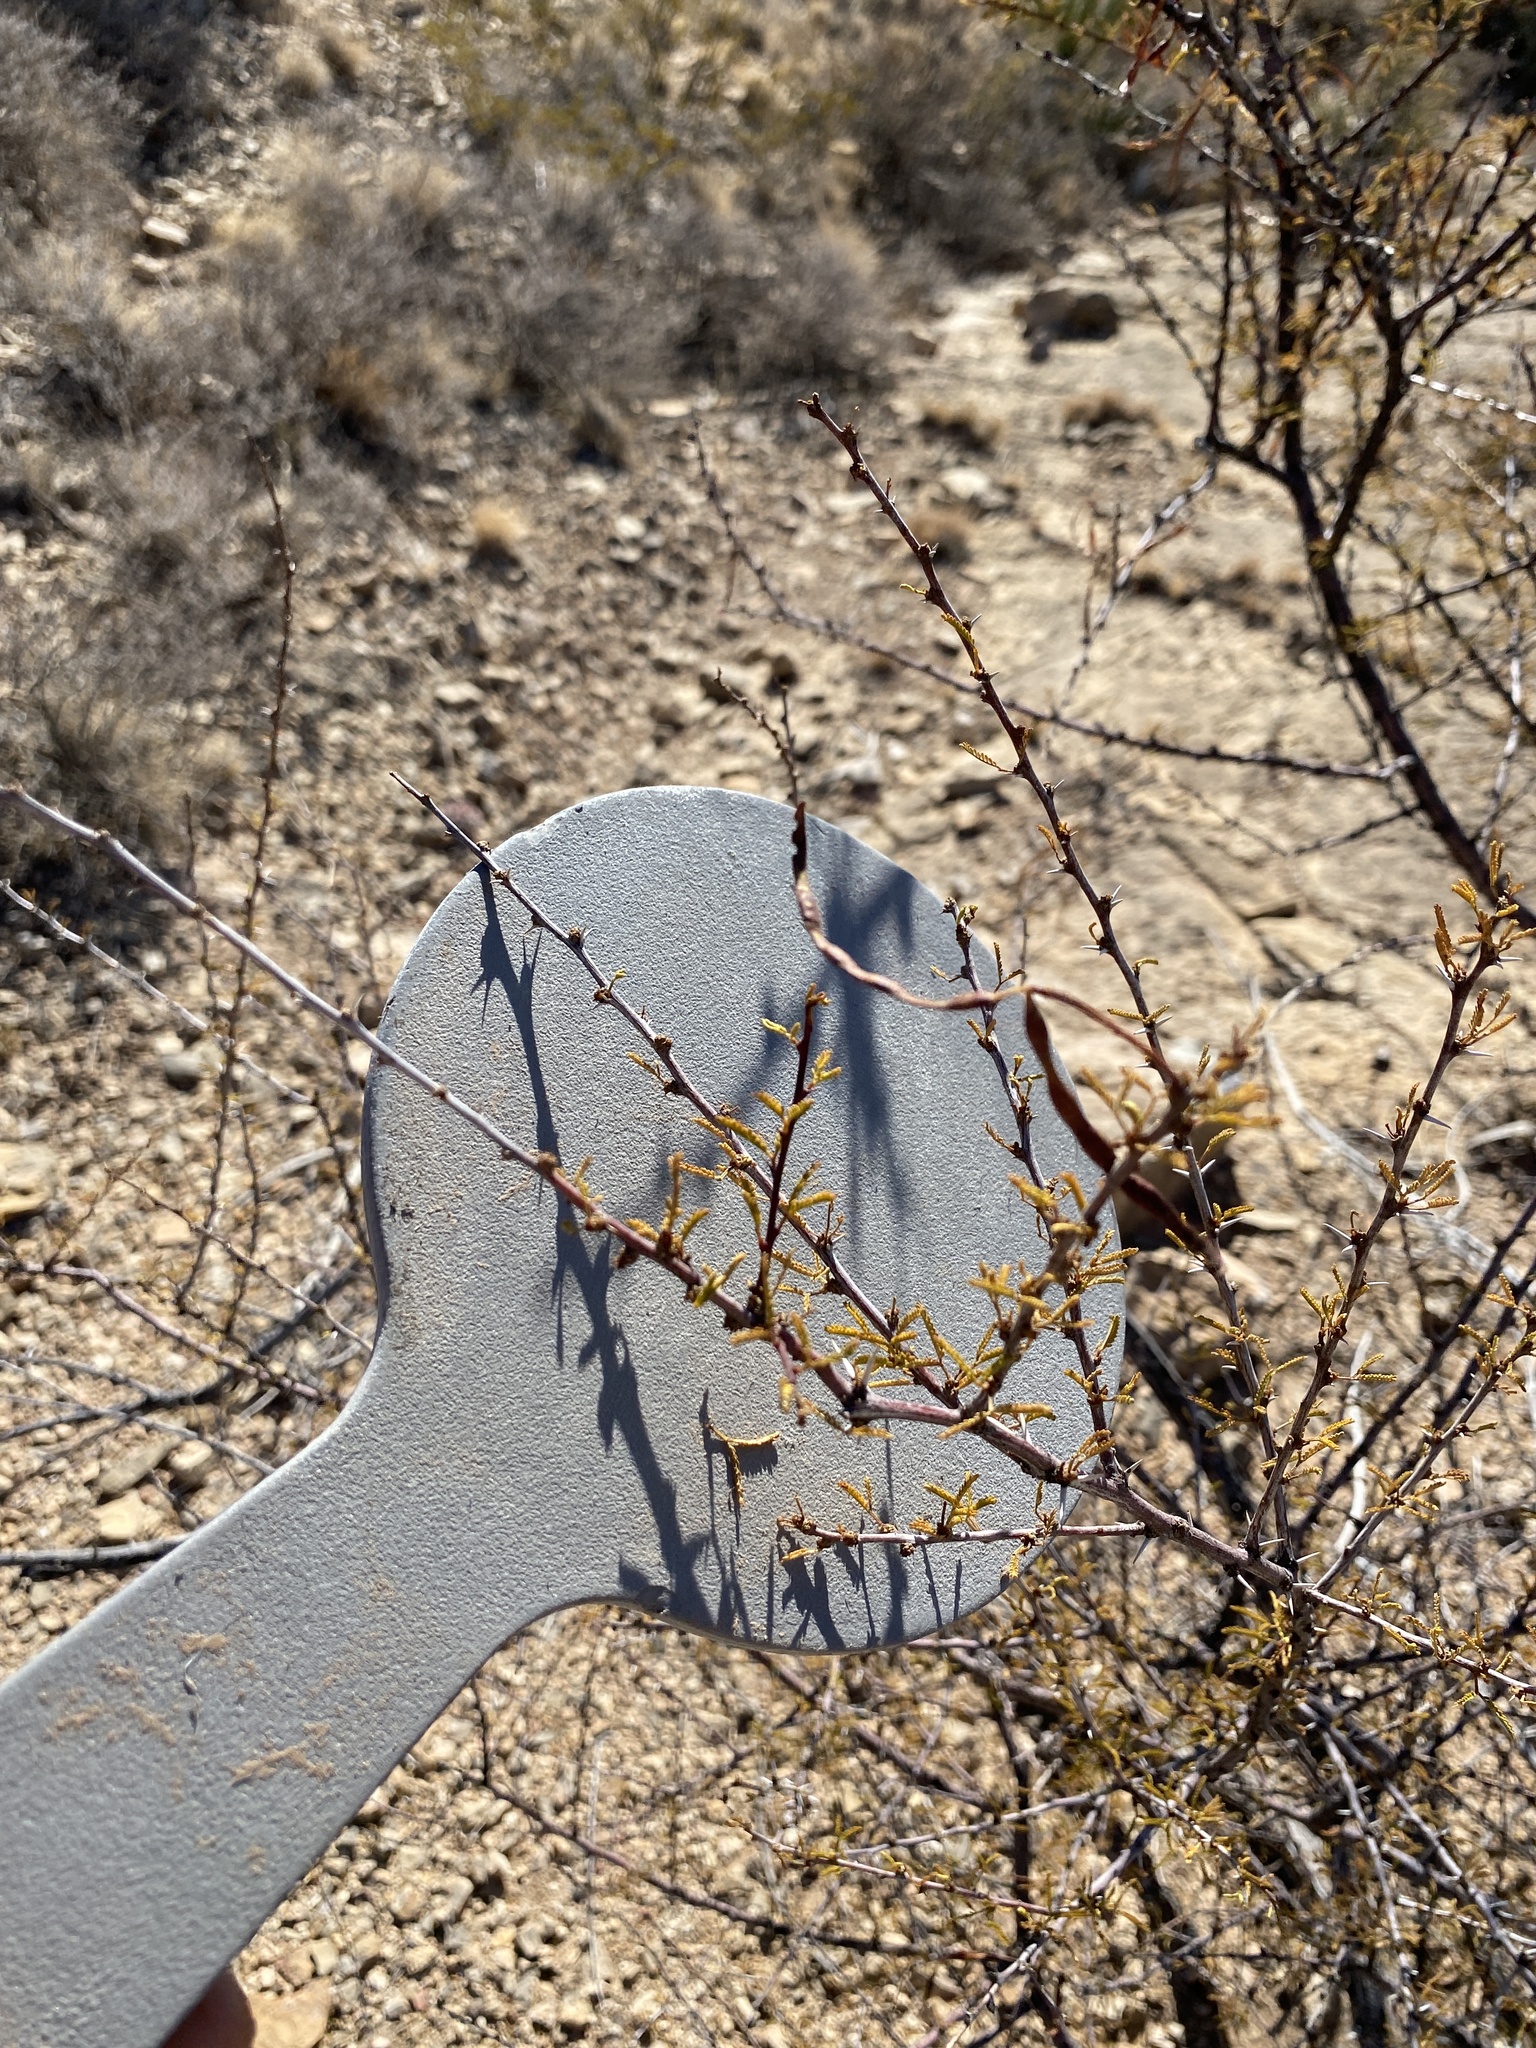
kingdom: Plantae
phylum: Tracheophyta
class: Magnoliopsida
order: Fabales
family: Fabaceae
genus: Vachellia
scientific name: Vachellia constricta
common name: Mescat acacia
